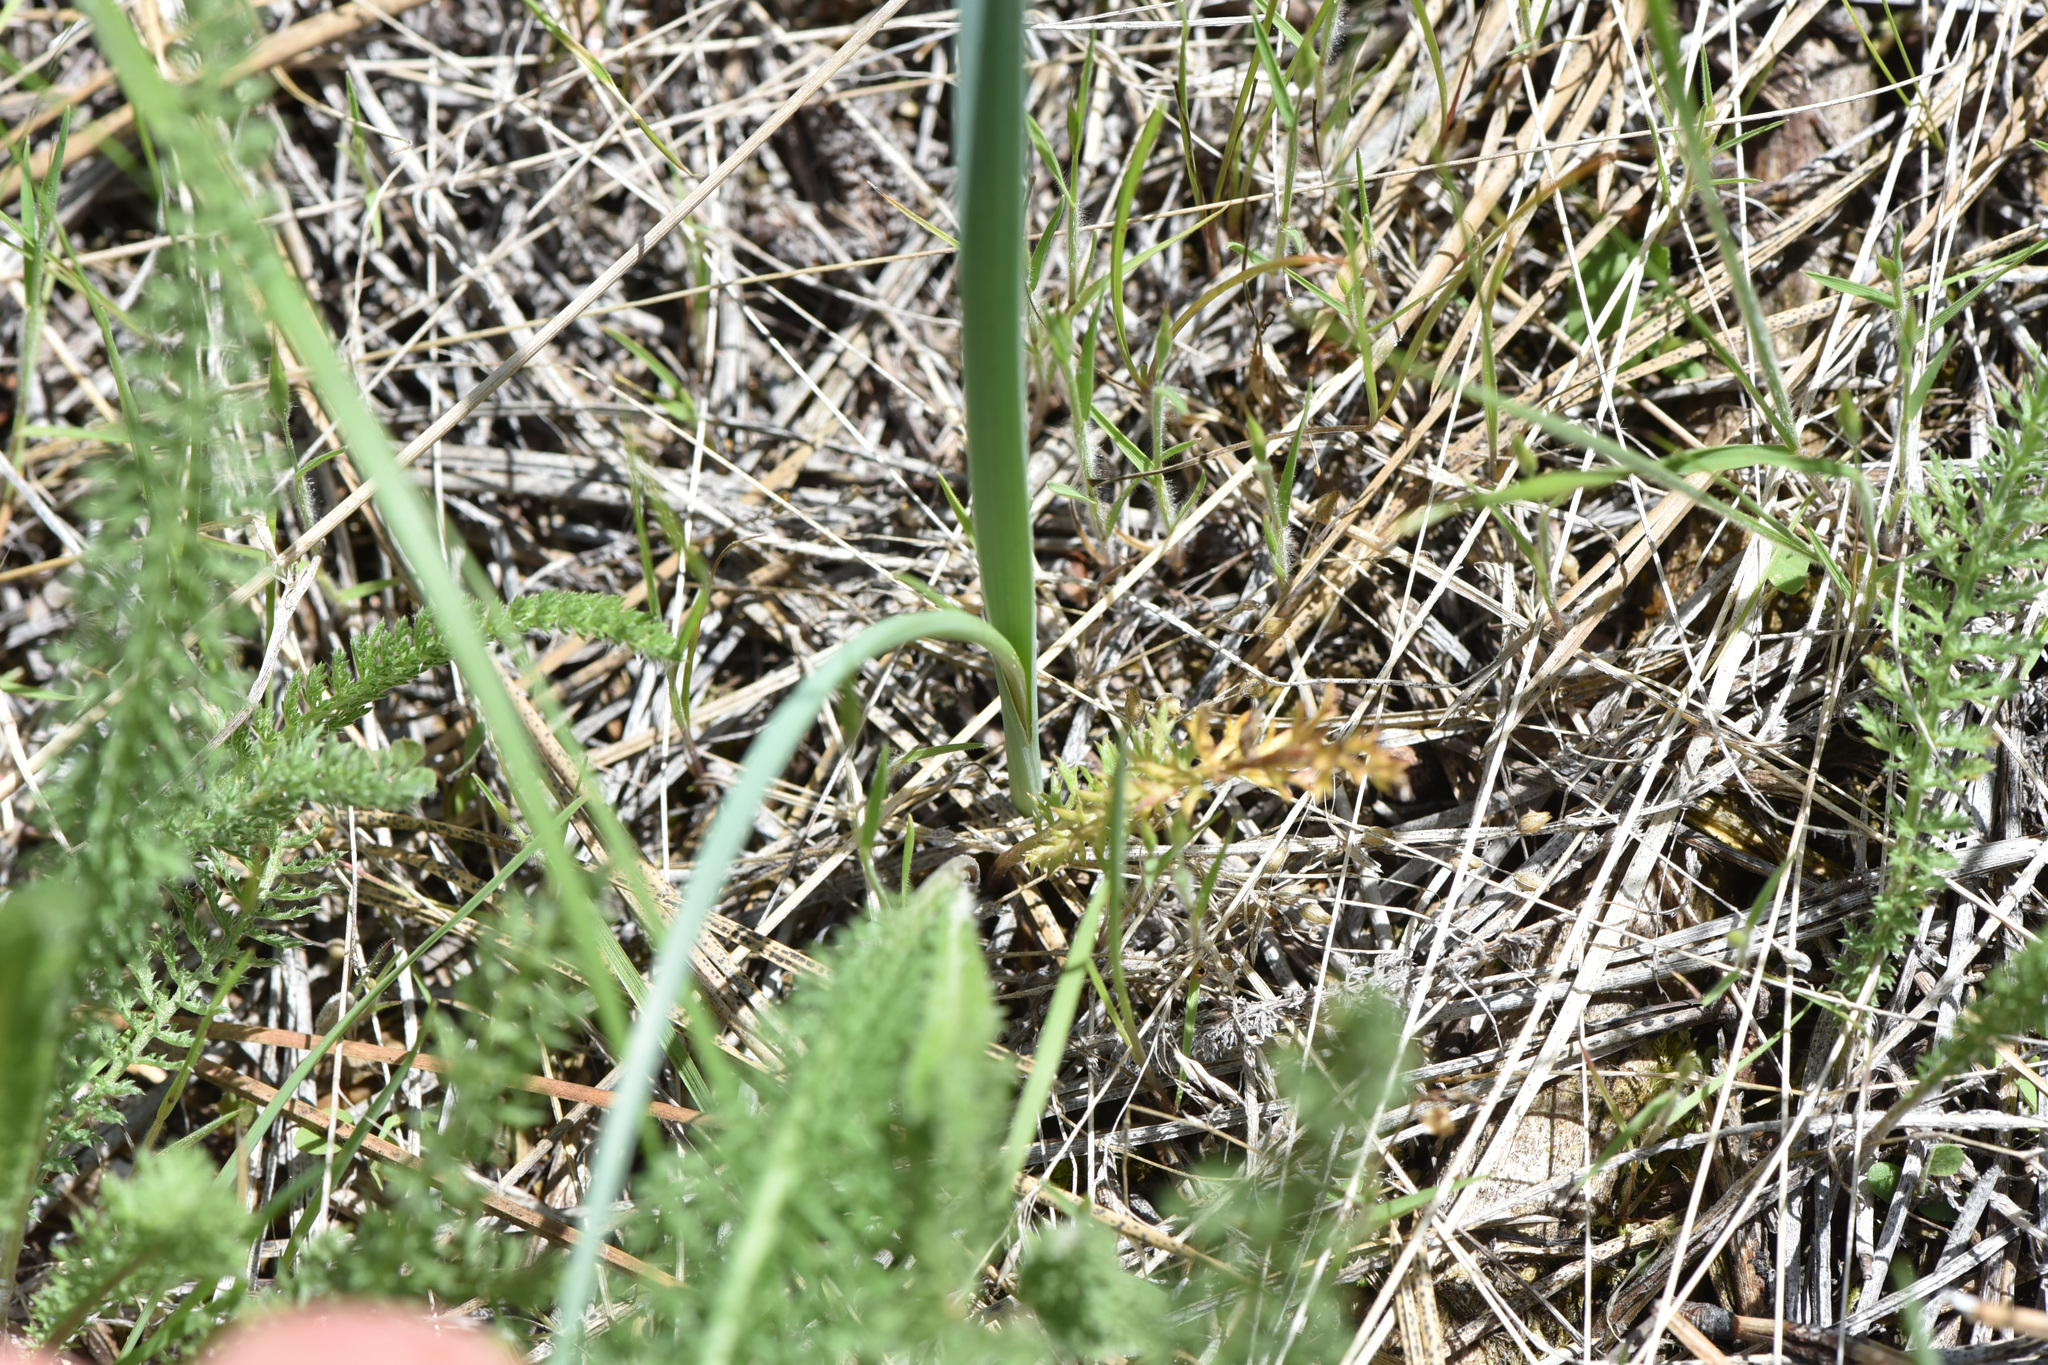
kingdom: Plantae
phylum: Tracheophyta
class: Liliopsida
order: Liliales
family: Liliaceae
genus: Calochortus
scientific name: Calochortus macrocarpus
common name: Green-band mariposa lily
